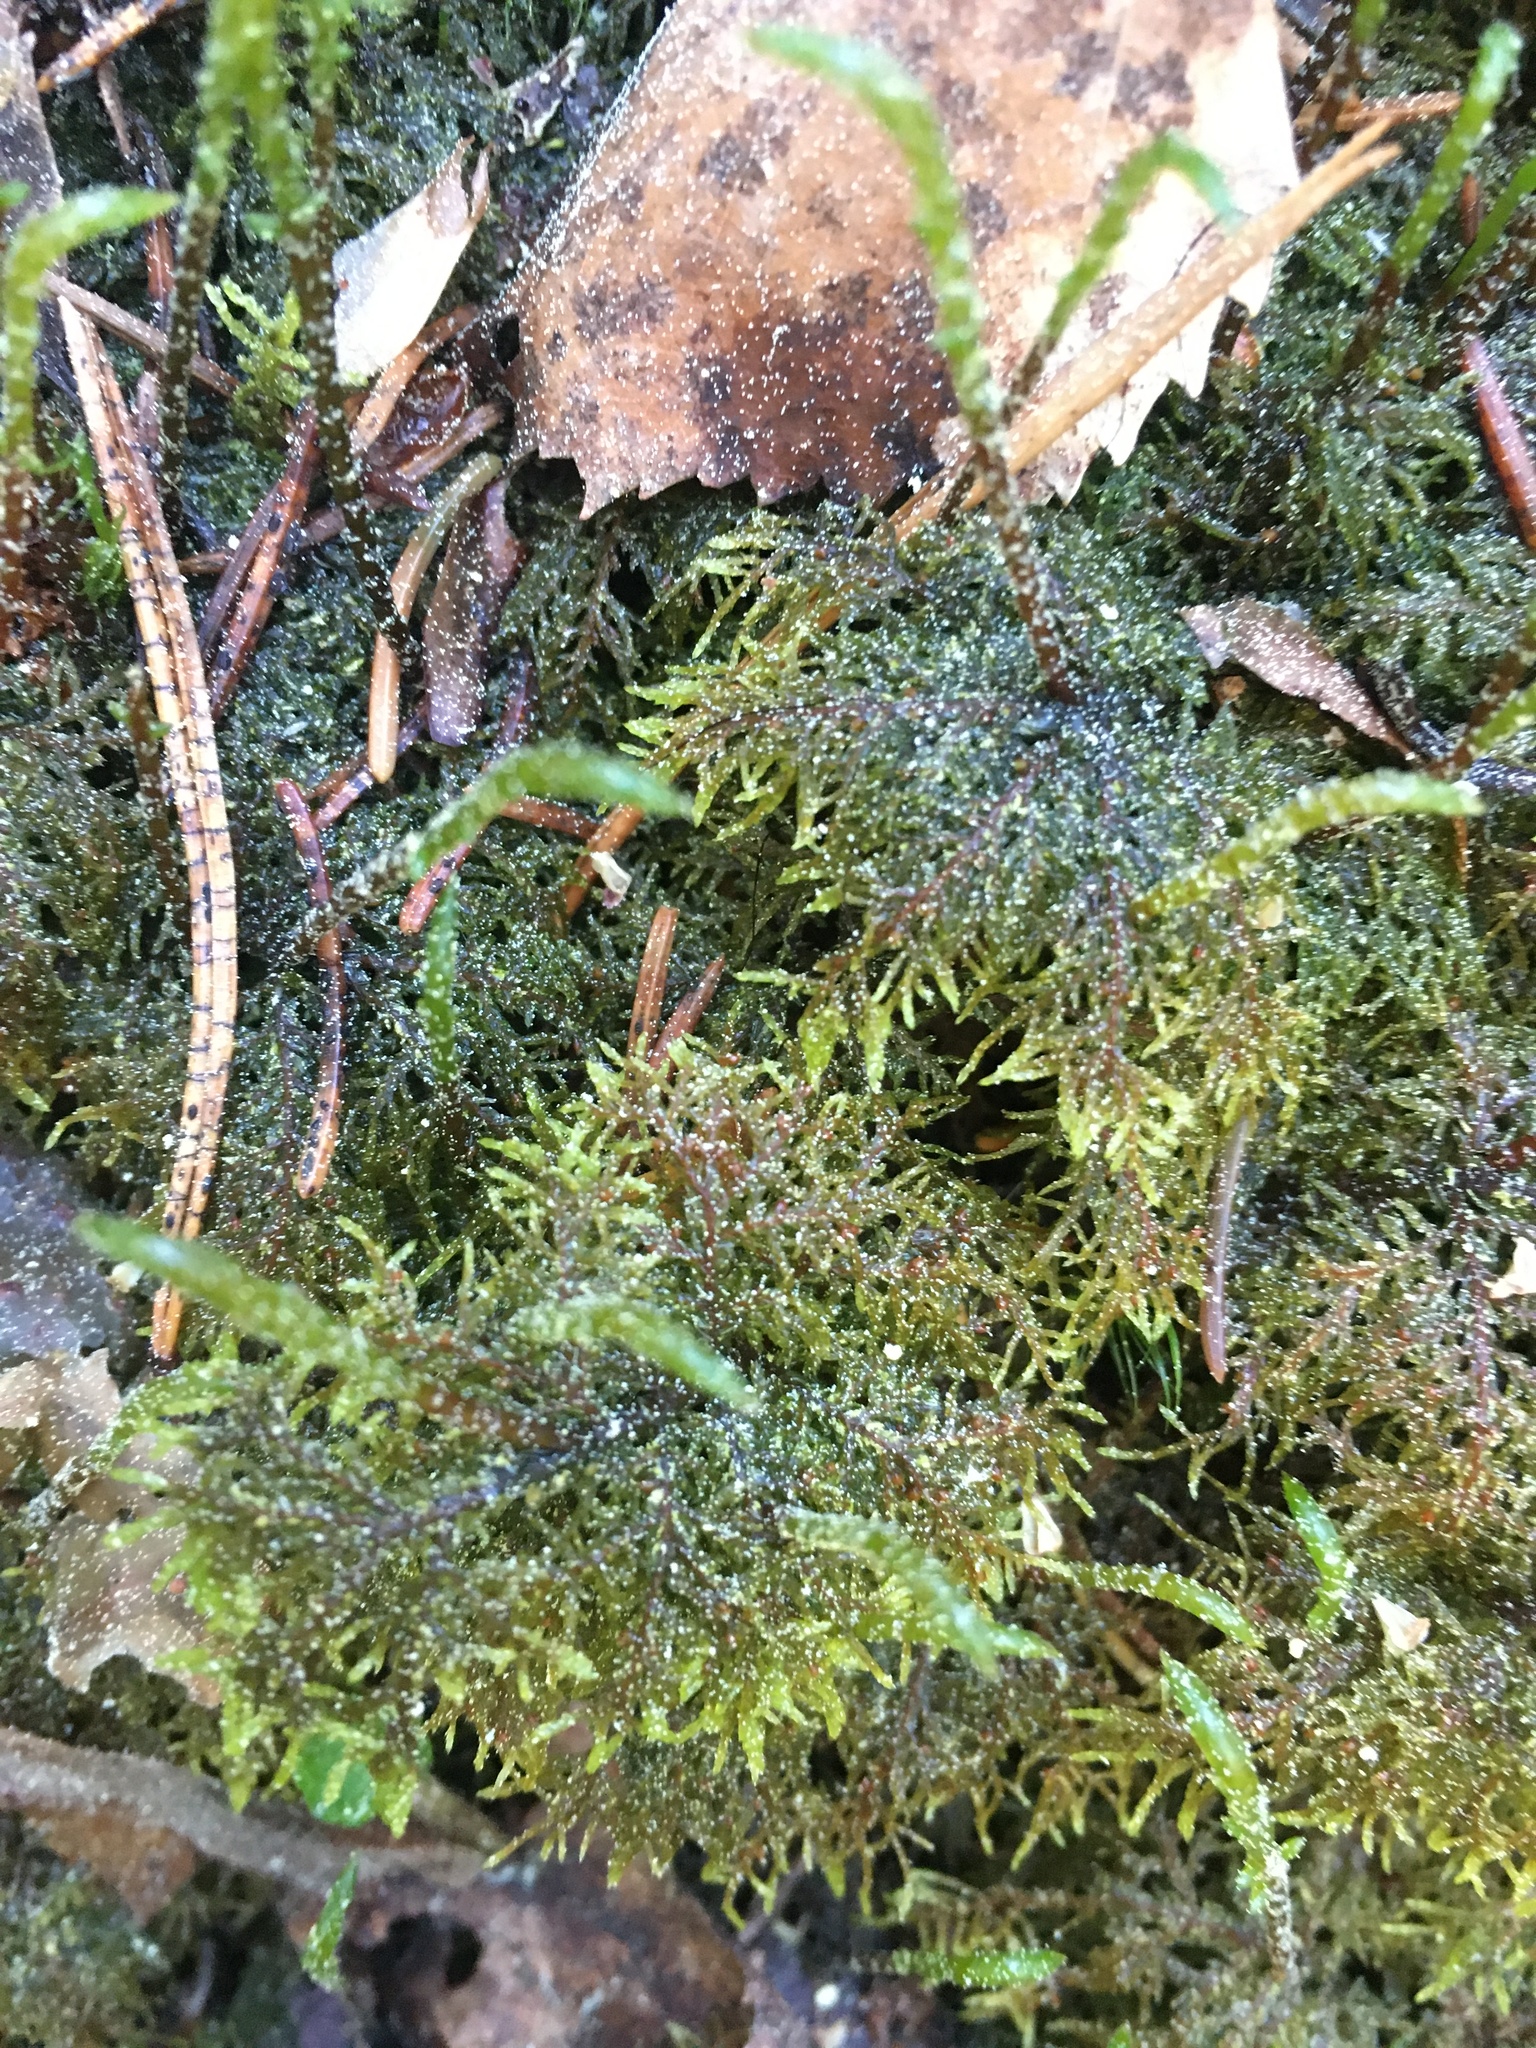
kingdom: Plantae
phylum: Bryophyta
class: Bryopsida
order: Hypnales
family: Hylocomiaceae
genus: Hylocomium
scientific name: Hylocomium splendens
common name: Stairstep moss
